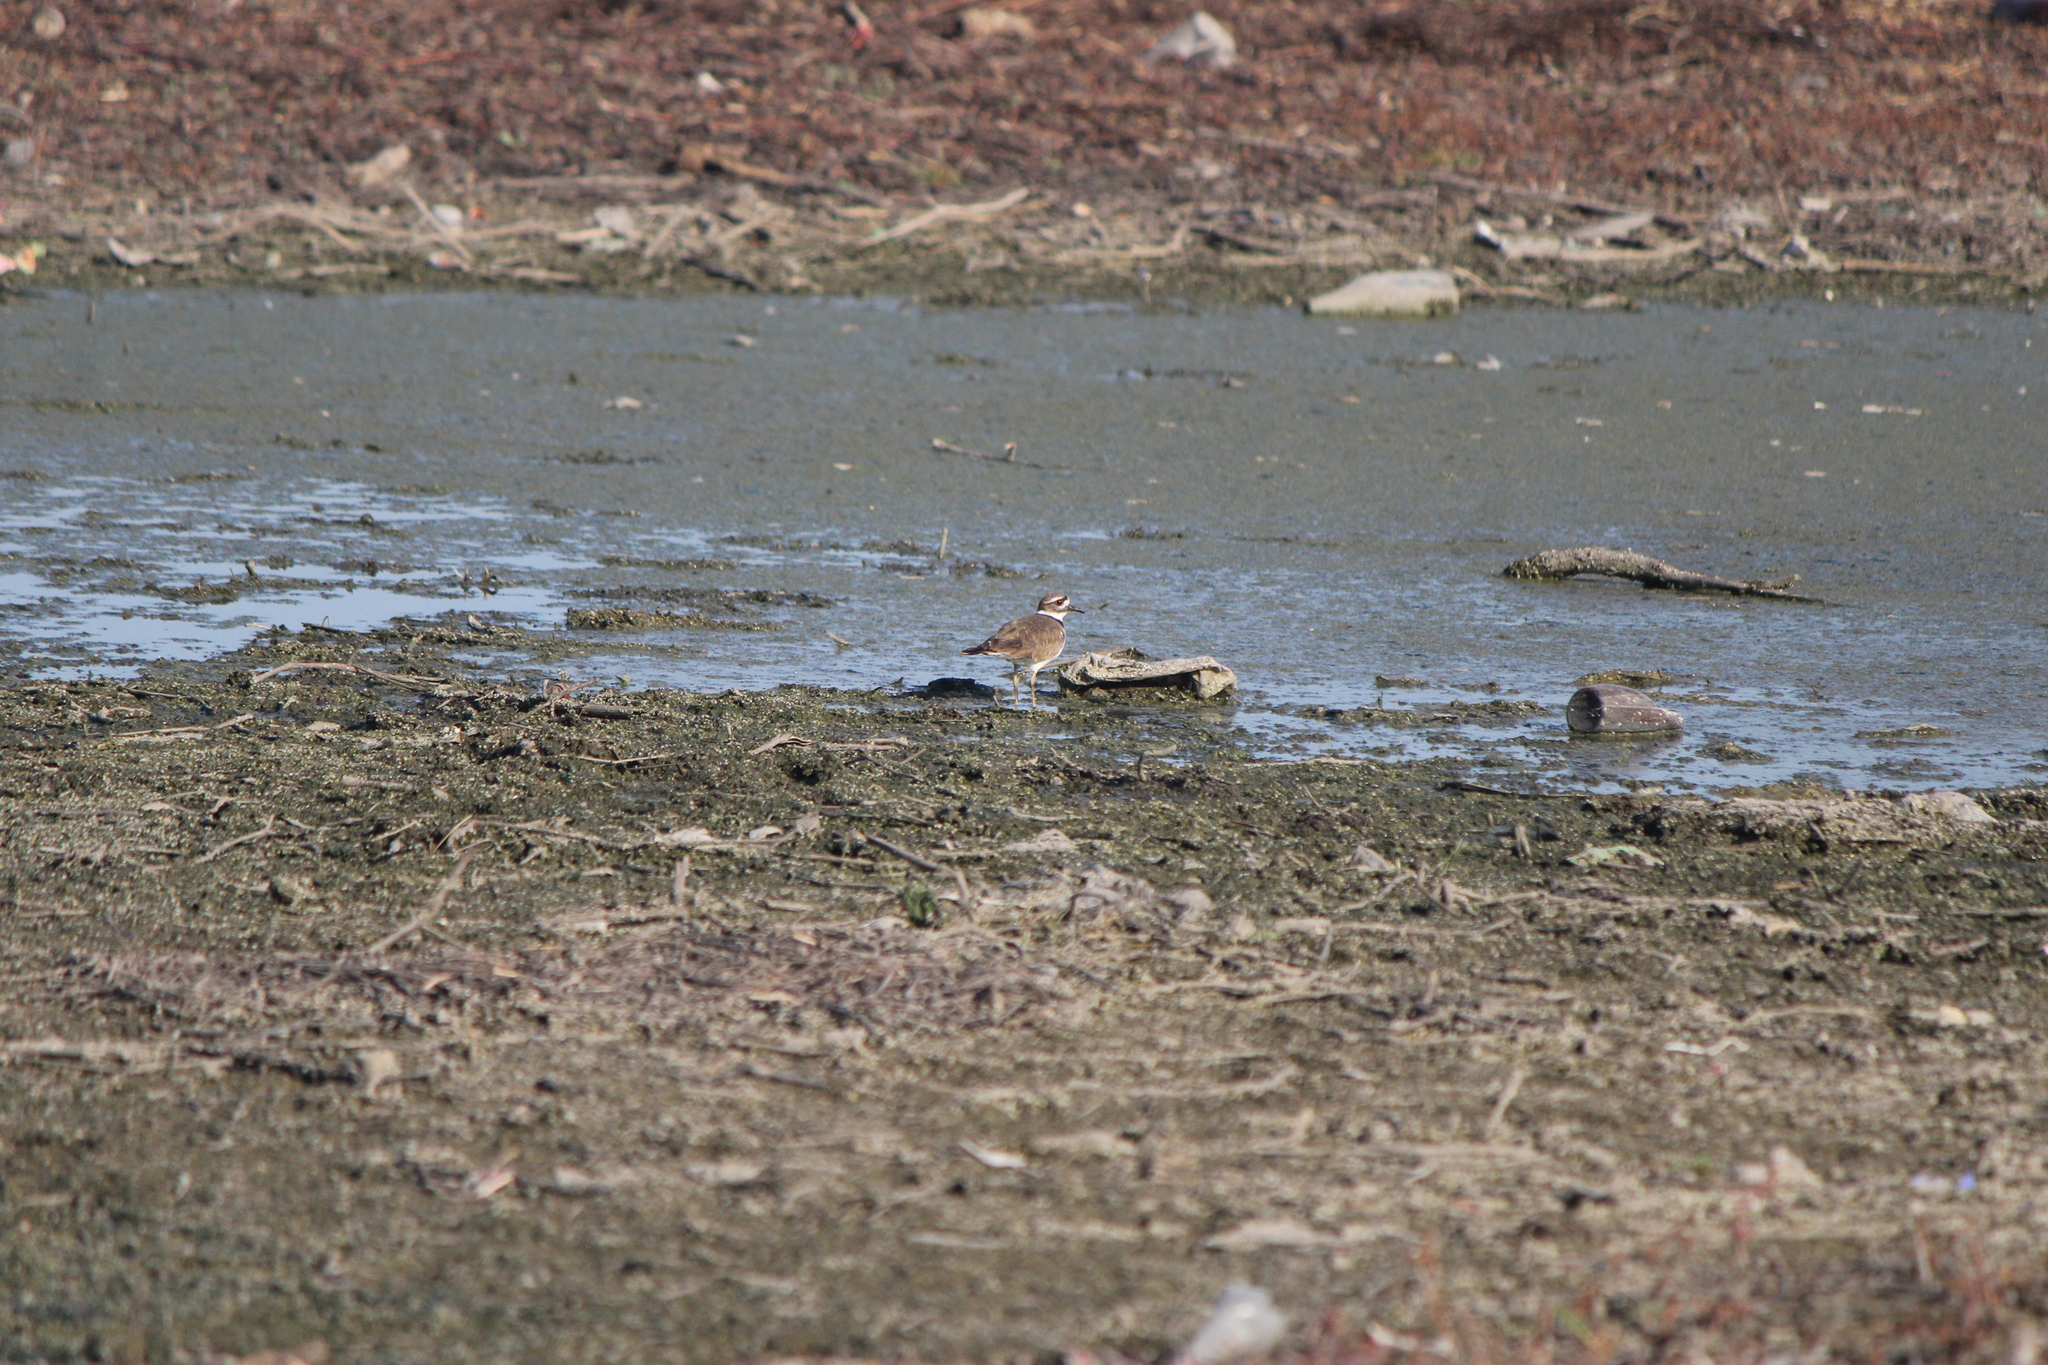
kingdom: Animalia
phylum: Chordata
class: Aves
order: Charadriiformes
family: Charadriidae
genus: Charadrius
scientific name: Charadrius vociferus
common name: Killdeer
